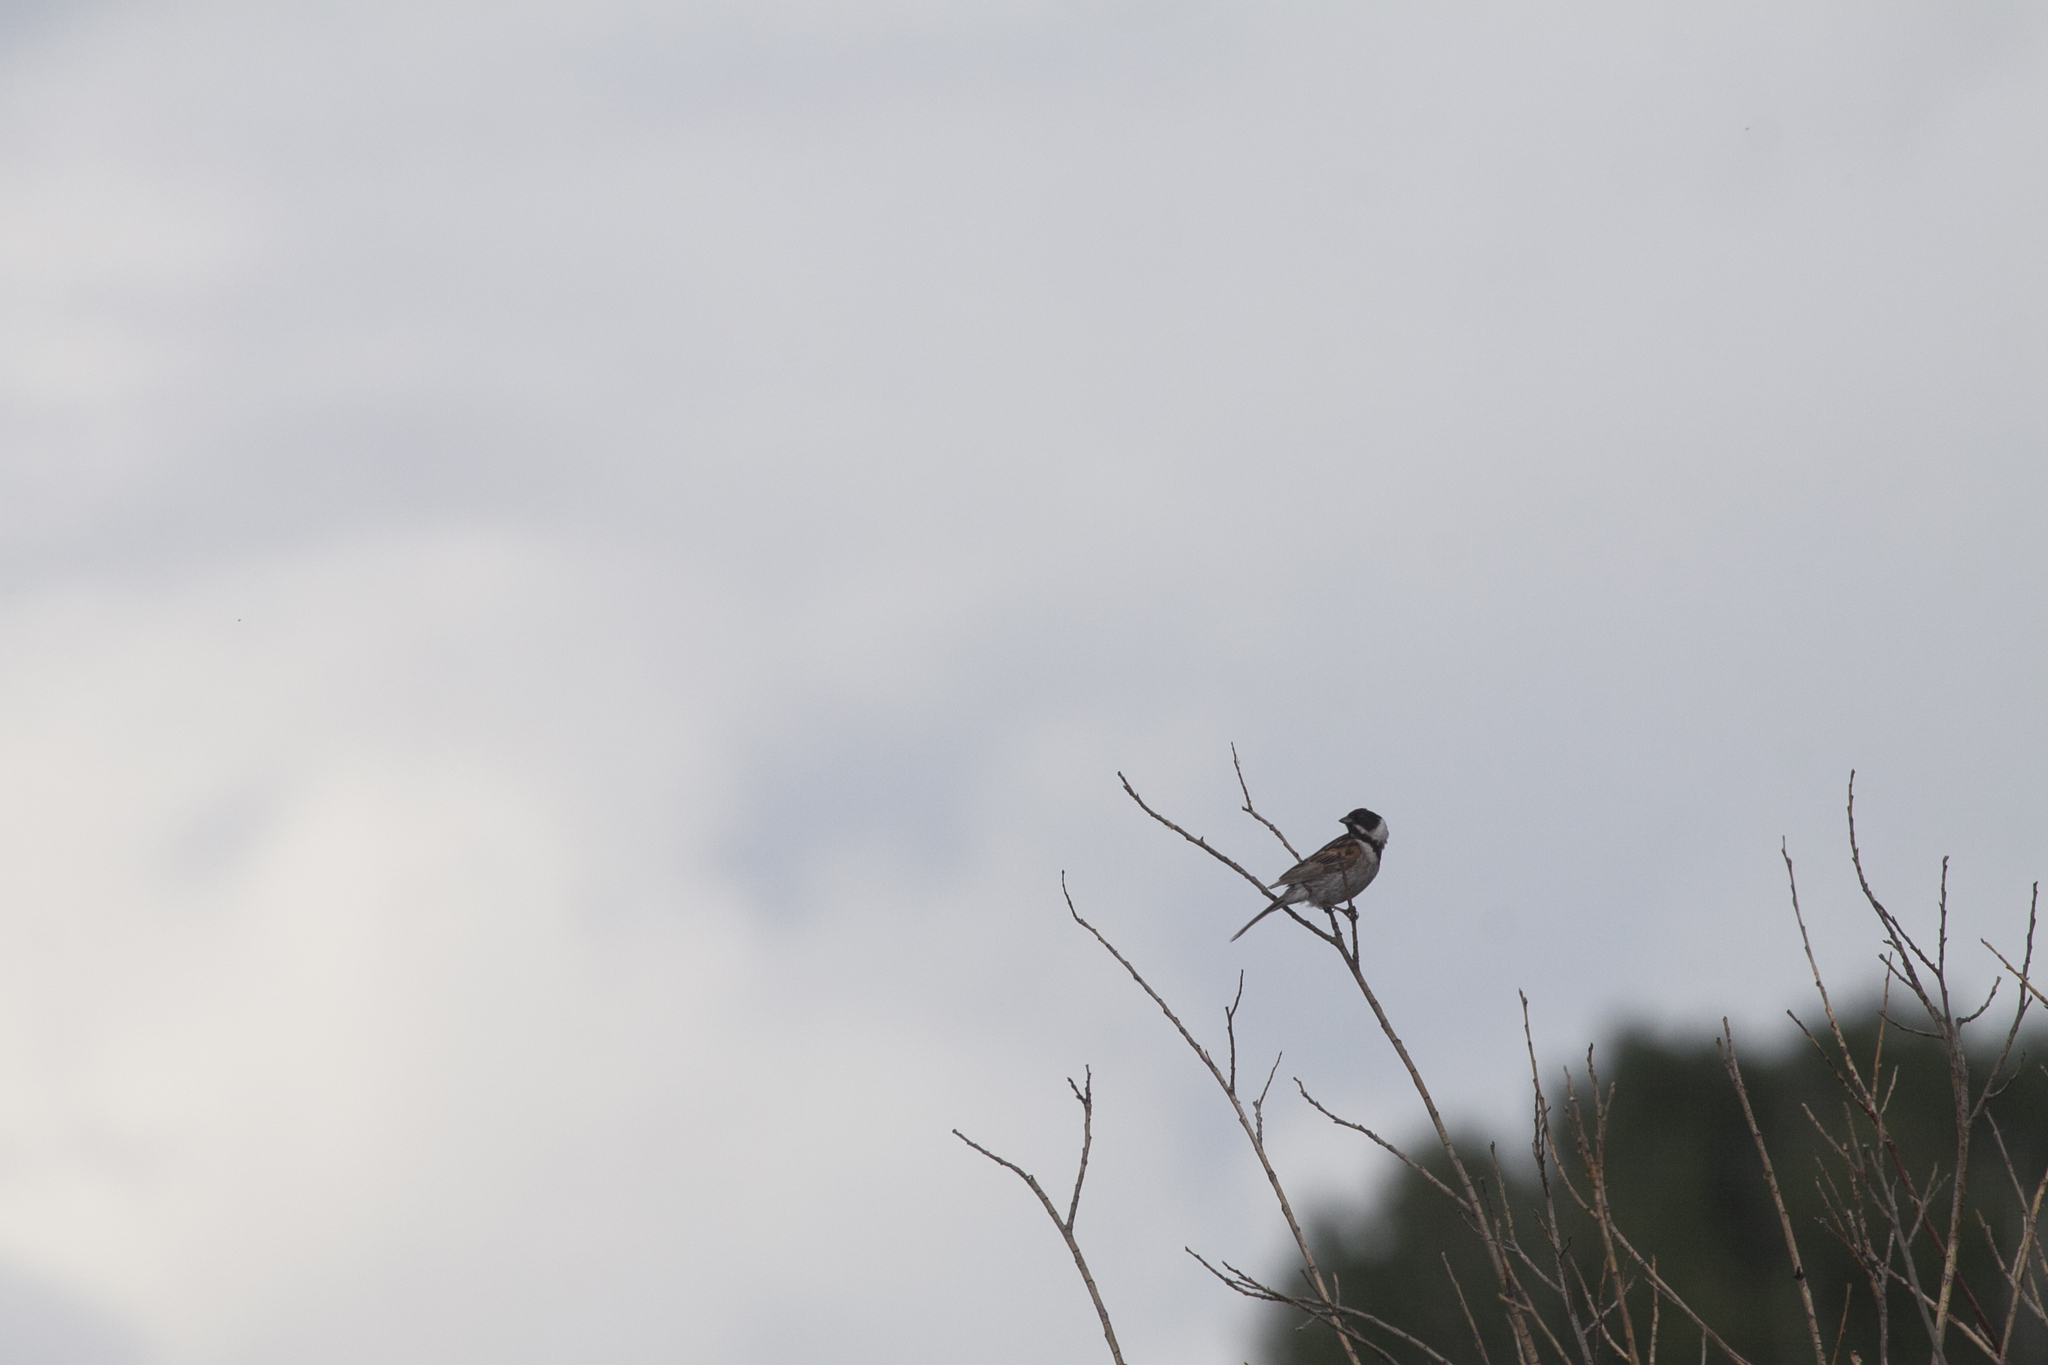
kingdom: Animalia
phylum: Chordata
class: Aves
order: Passeriformes
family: Emberizidae
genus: Emberiza
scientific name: Emberiza schoeniclus
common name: Reed bunting
